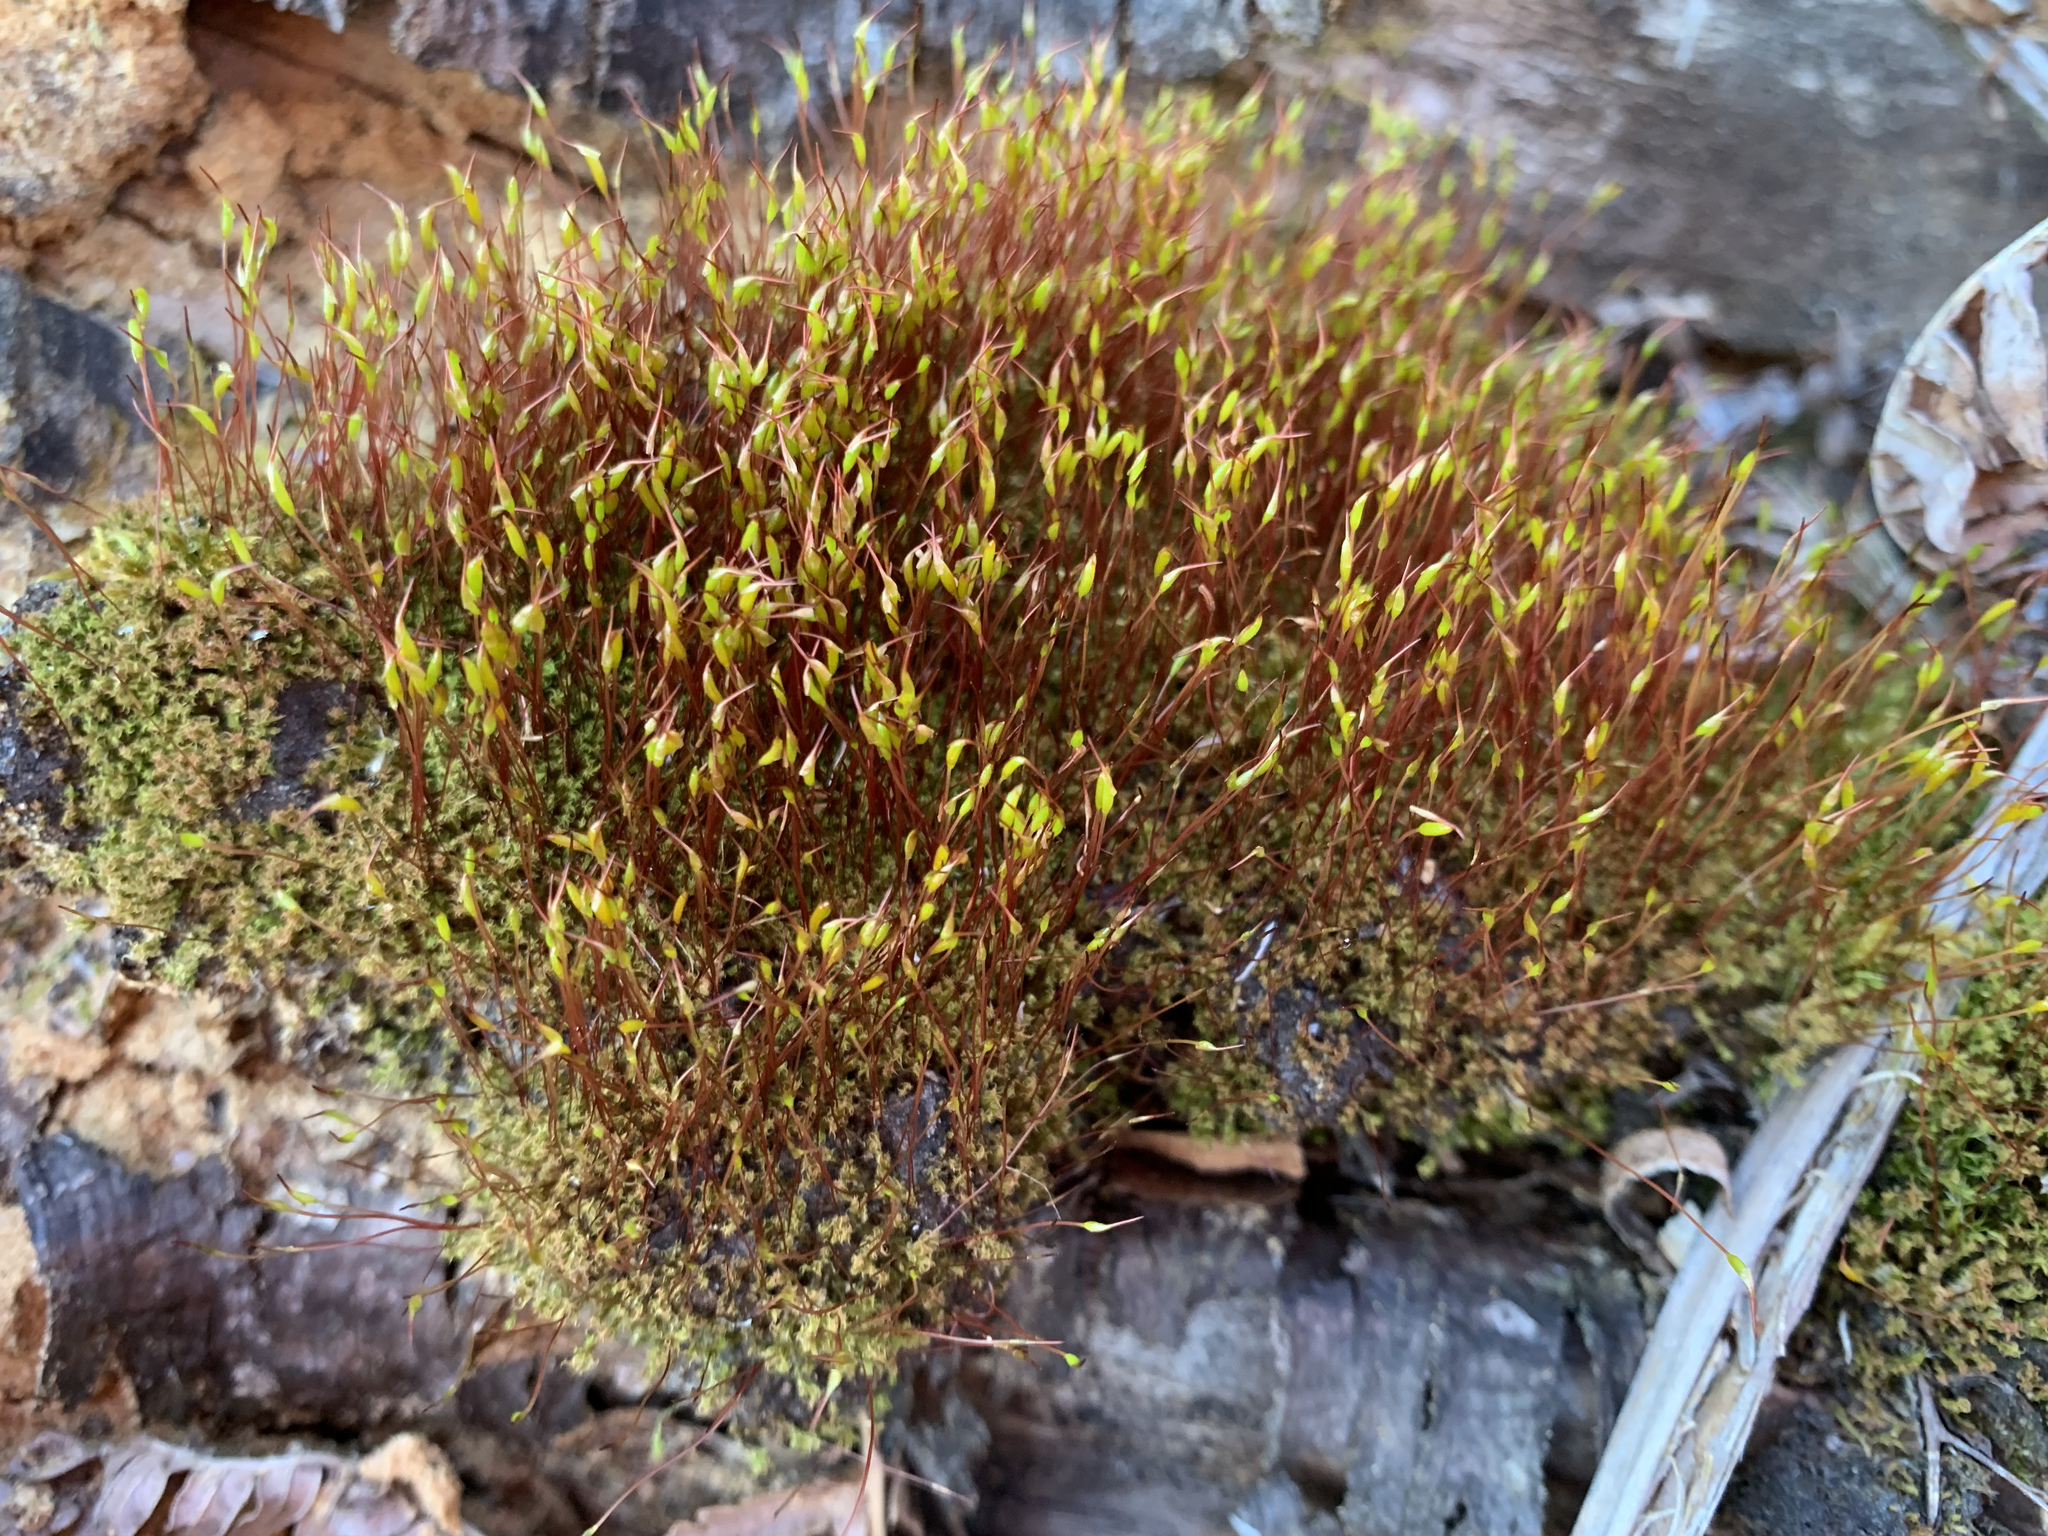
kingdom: Plantae
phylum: Bryophyta
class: Bryopsida
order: Dicranales
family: Ditrichaceae
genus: Ceratodon
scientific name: Ceratodon purpureus
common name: Redshank
